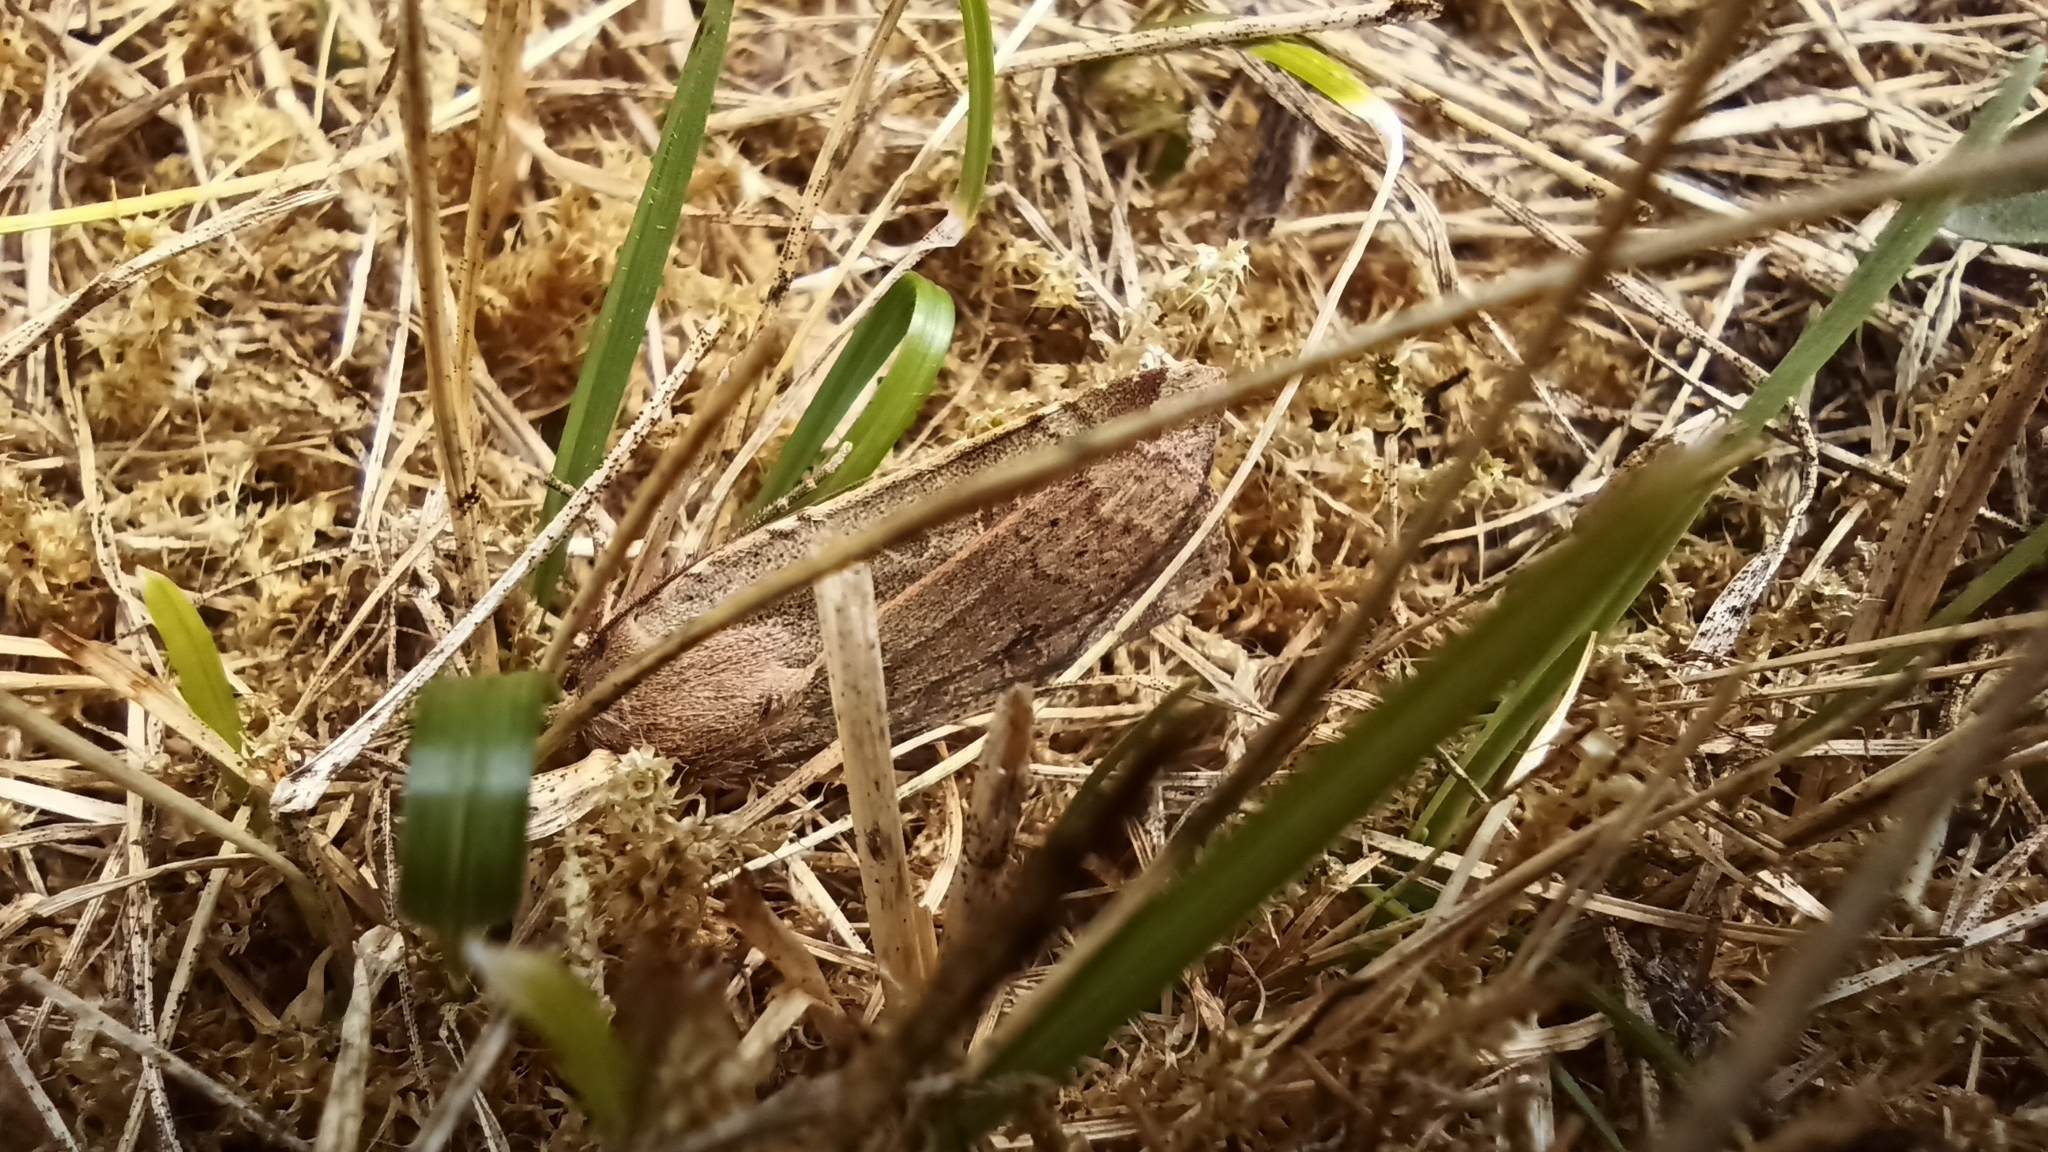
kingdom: Animalia
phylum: Arthropoda
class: Insecta
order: Lepidoptera
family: Noctuidae
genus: Noctua
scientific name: Noctua comes
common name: Lesser yellow underwing
